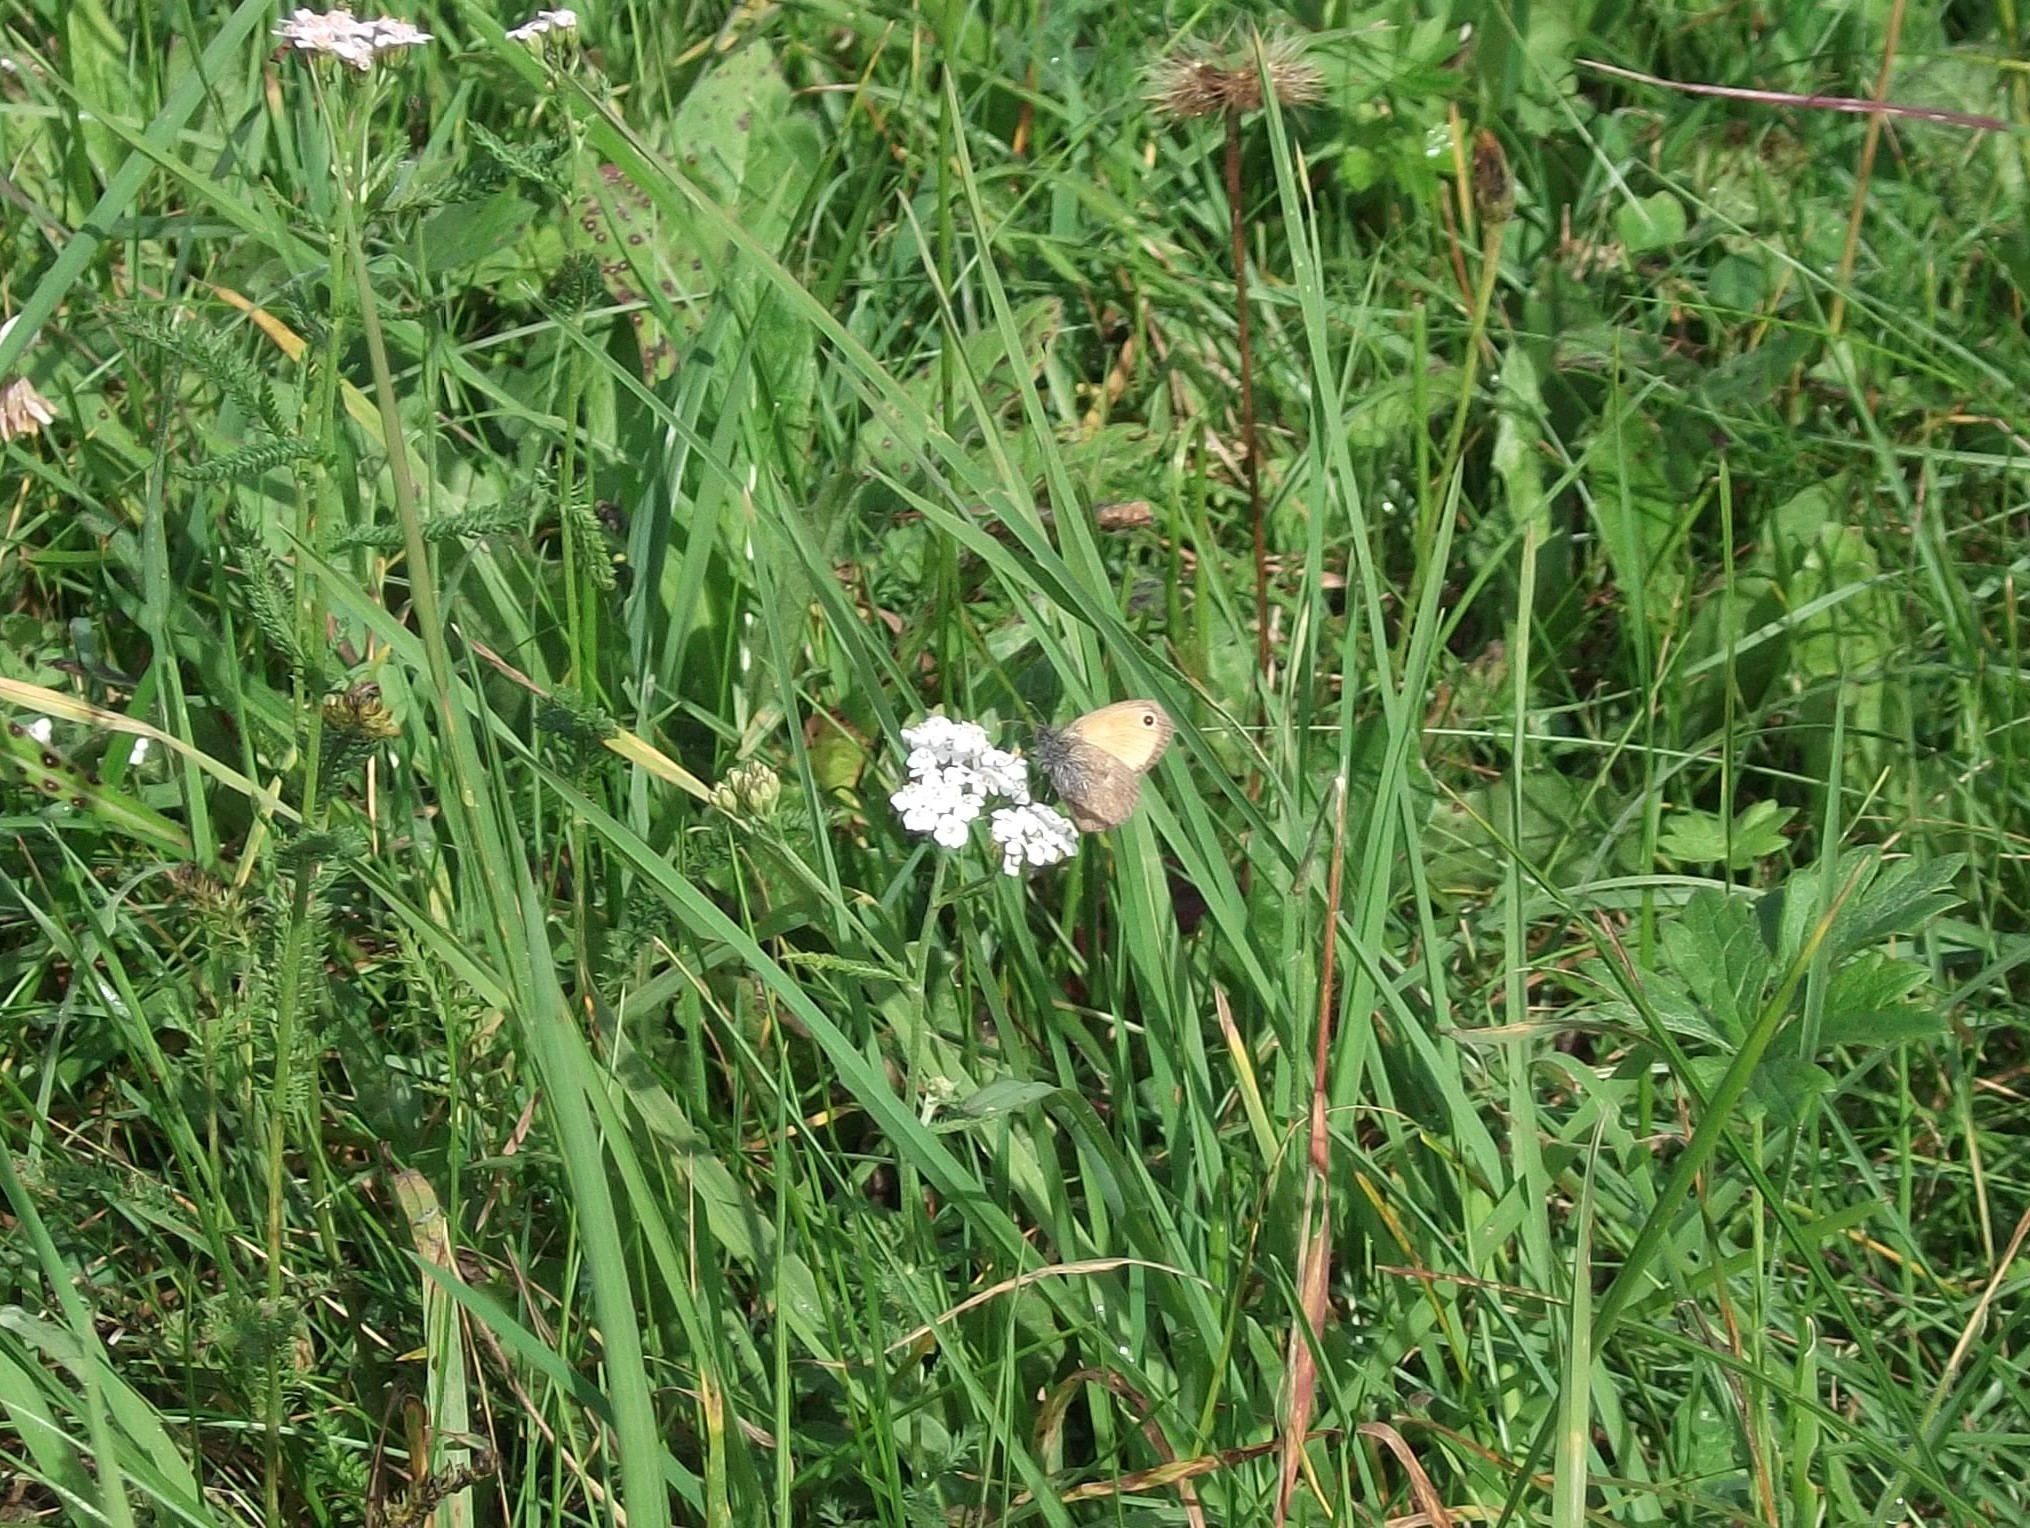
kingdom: Animalia
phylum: Arthropoda
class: Insecta
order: Lepidoptera
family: Nymphalidae
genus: Coenonympha
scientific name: Coenonympha pamphilus
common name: Small heath
